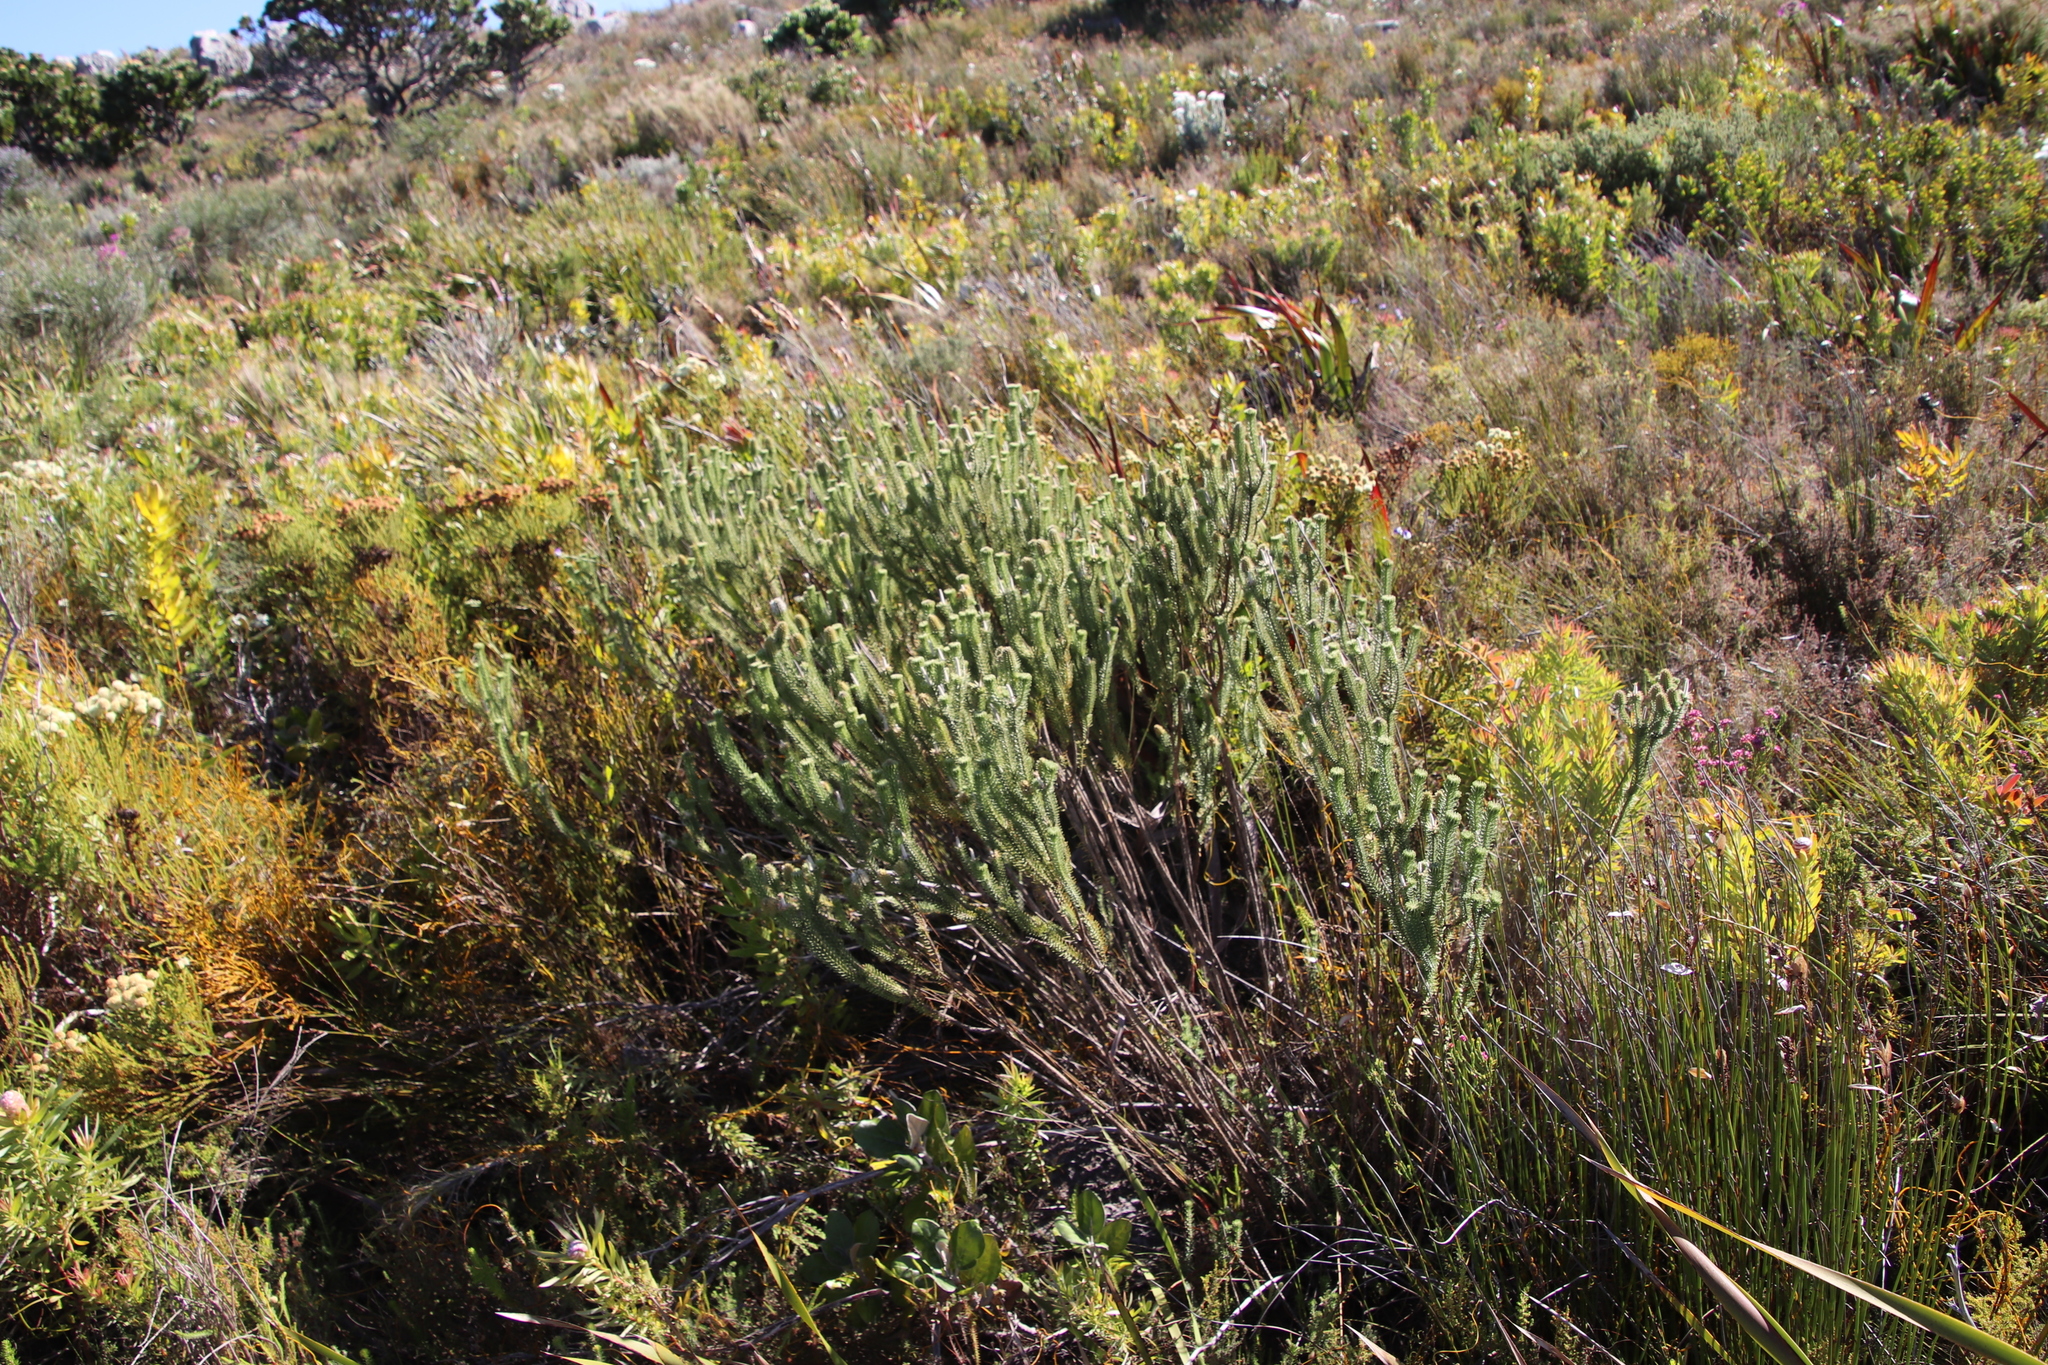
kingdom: Plantae
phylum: Tracheophyta
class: Magnoliopsida
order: Lamiales
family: Stilbaceae
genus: Stilbe
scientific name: Stilbe vestita
